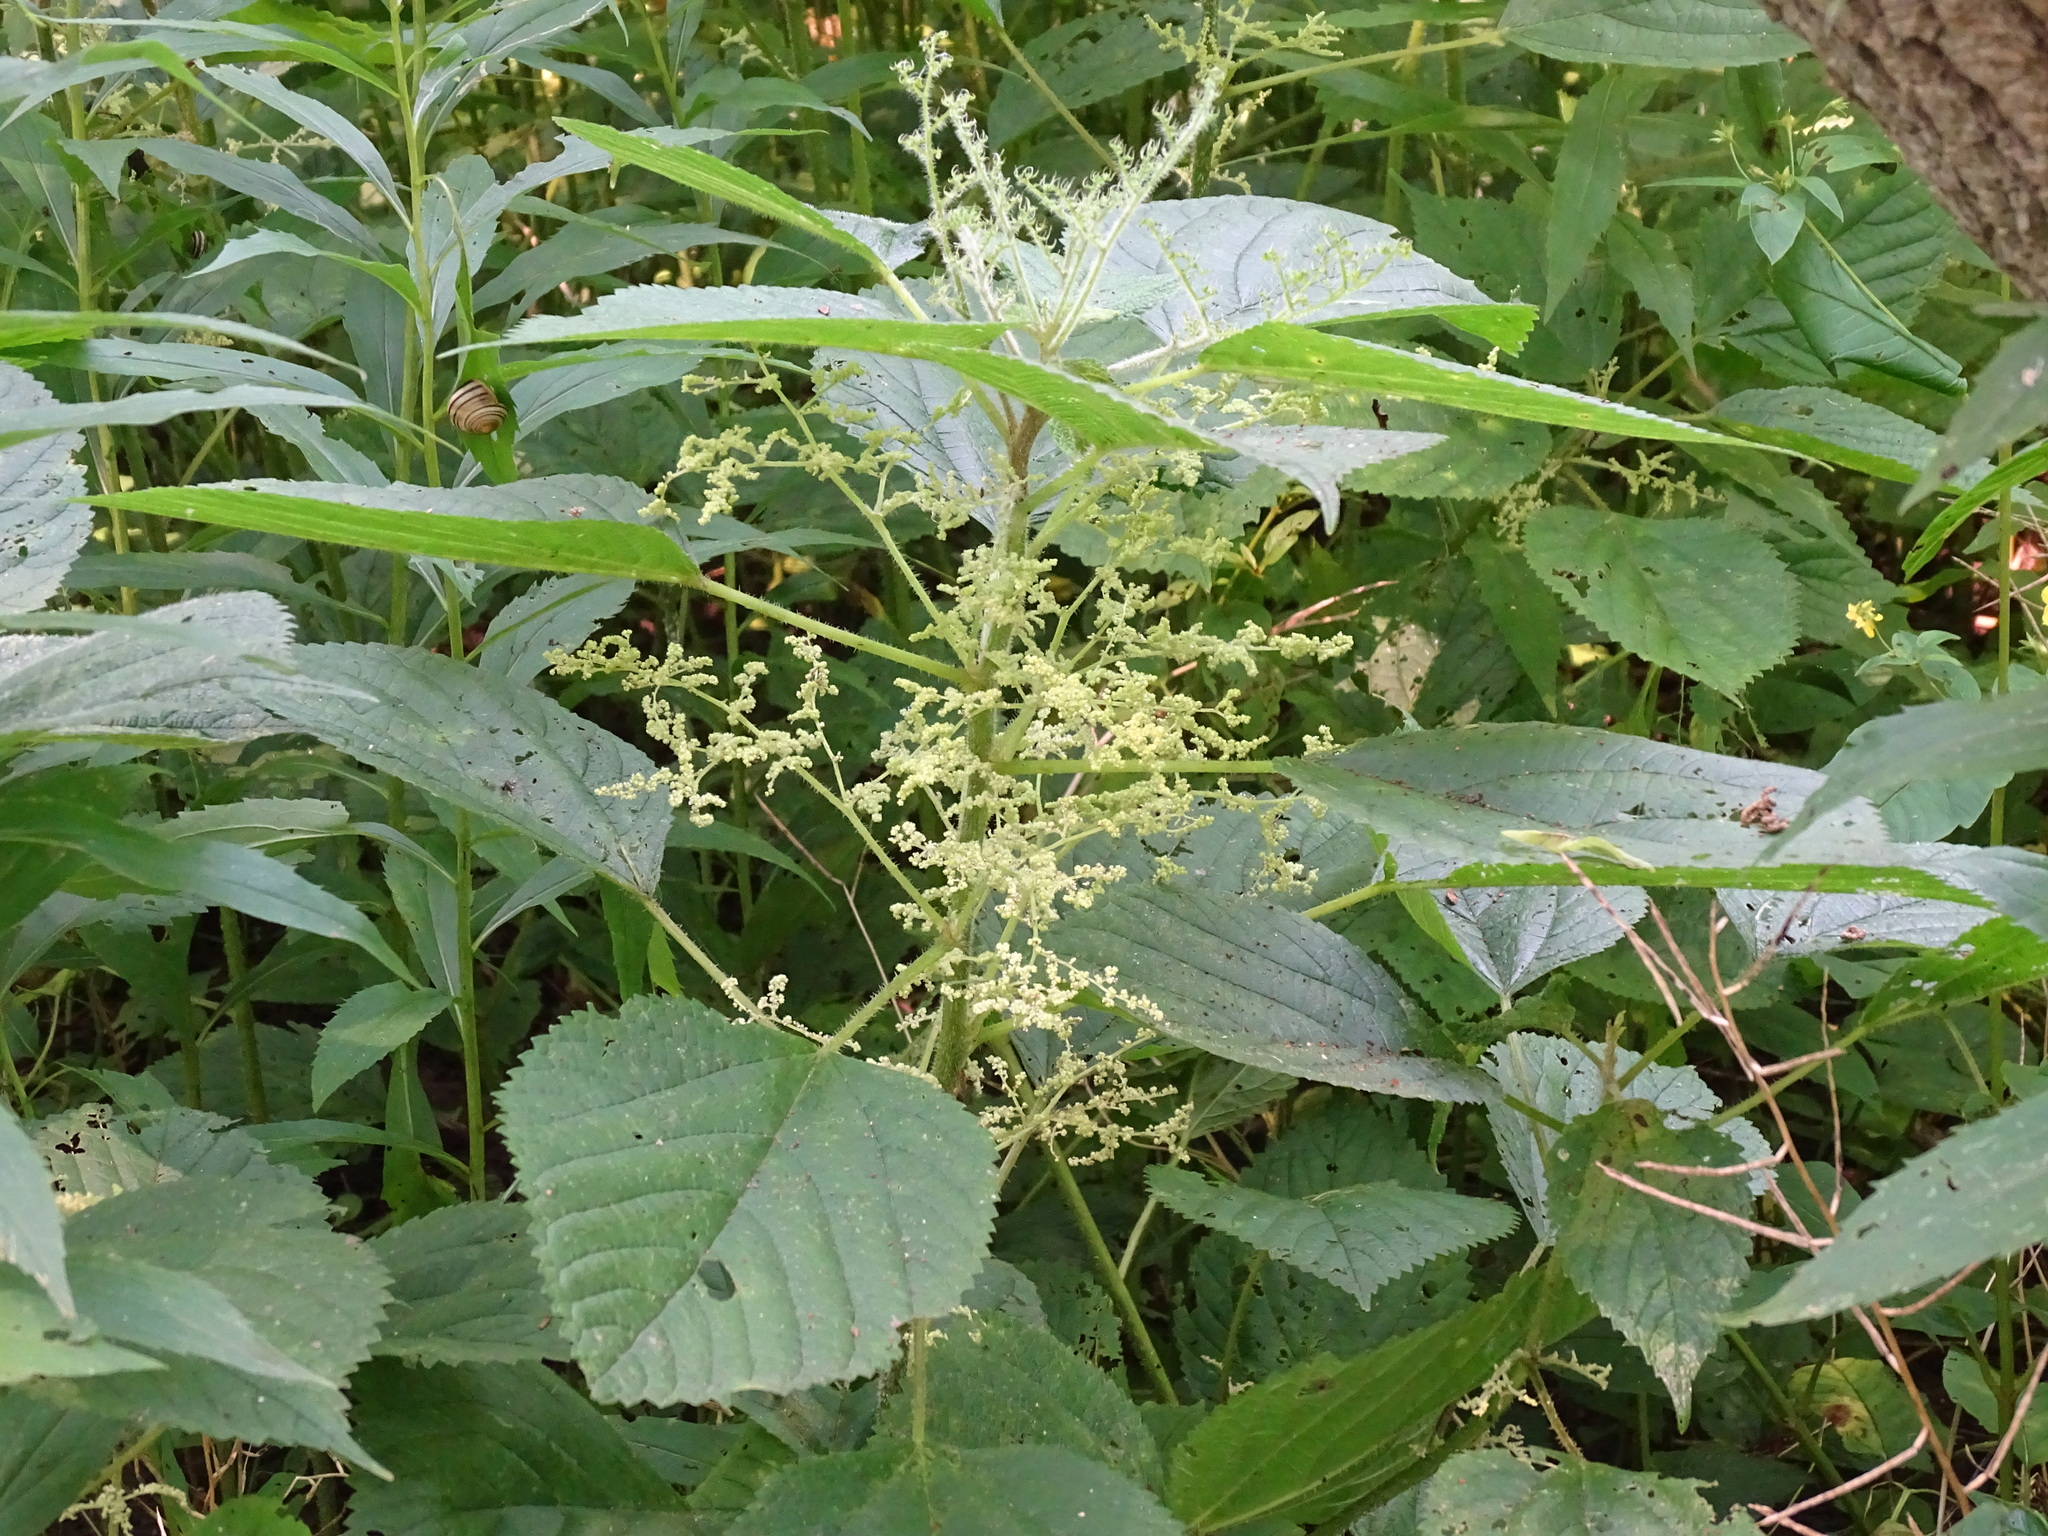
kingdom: Plantae
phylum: Tracheophyta
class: Magnoliopsida
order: Rosales
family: Urticaceae
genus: Laportea
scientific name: Laportea canadensis
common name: Canada nettle
